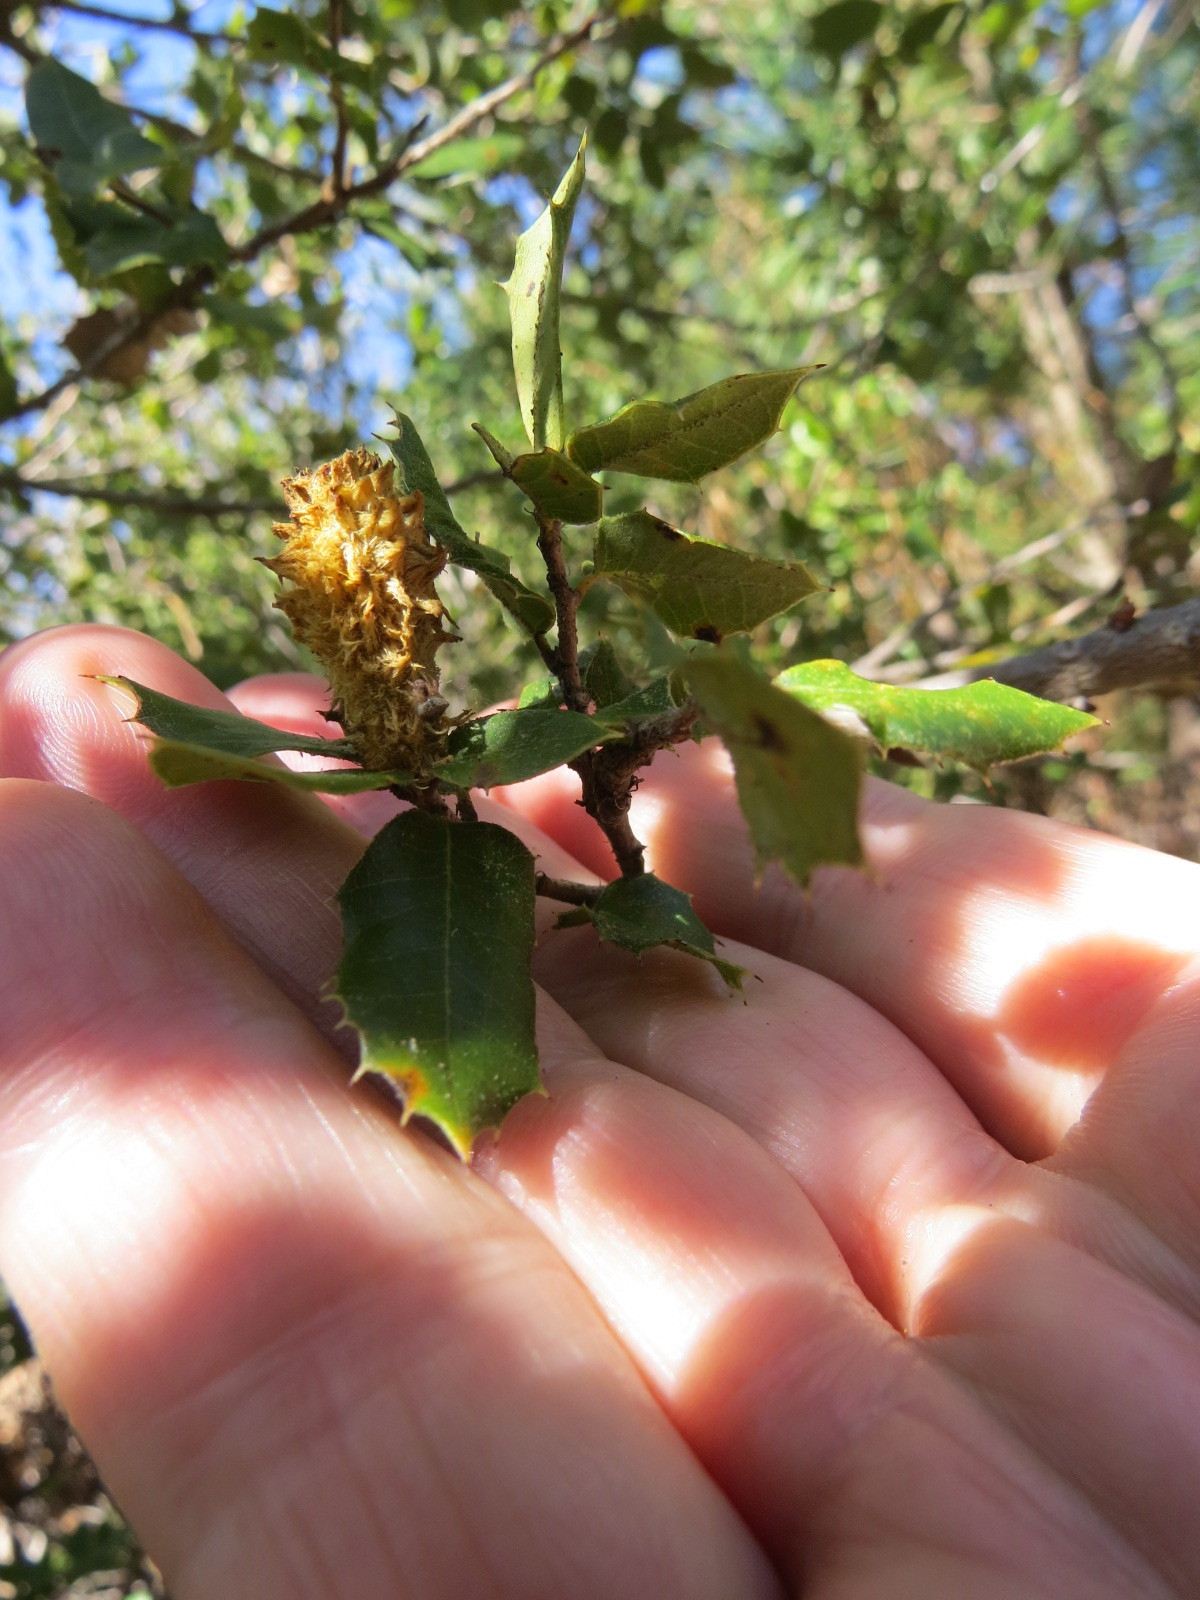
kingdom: Animalia
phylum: Arthropoda
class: Insecta
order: Hymenoptera
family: Cynipidae
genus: Heteroecus
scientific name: Heteroecus
